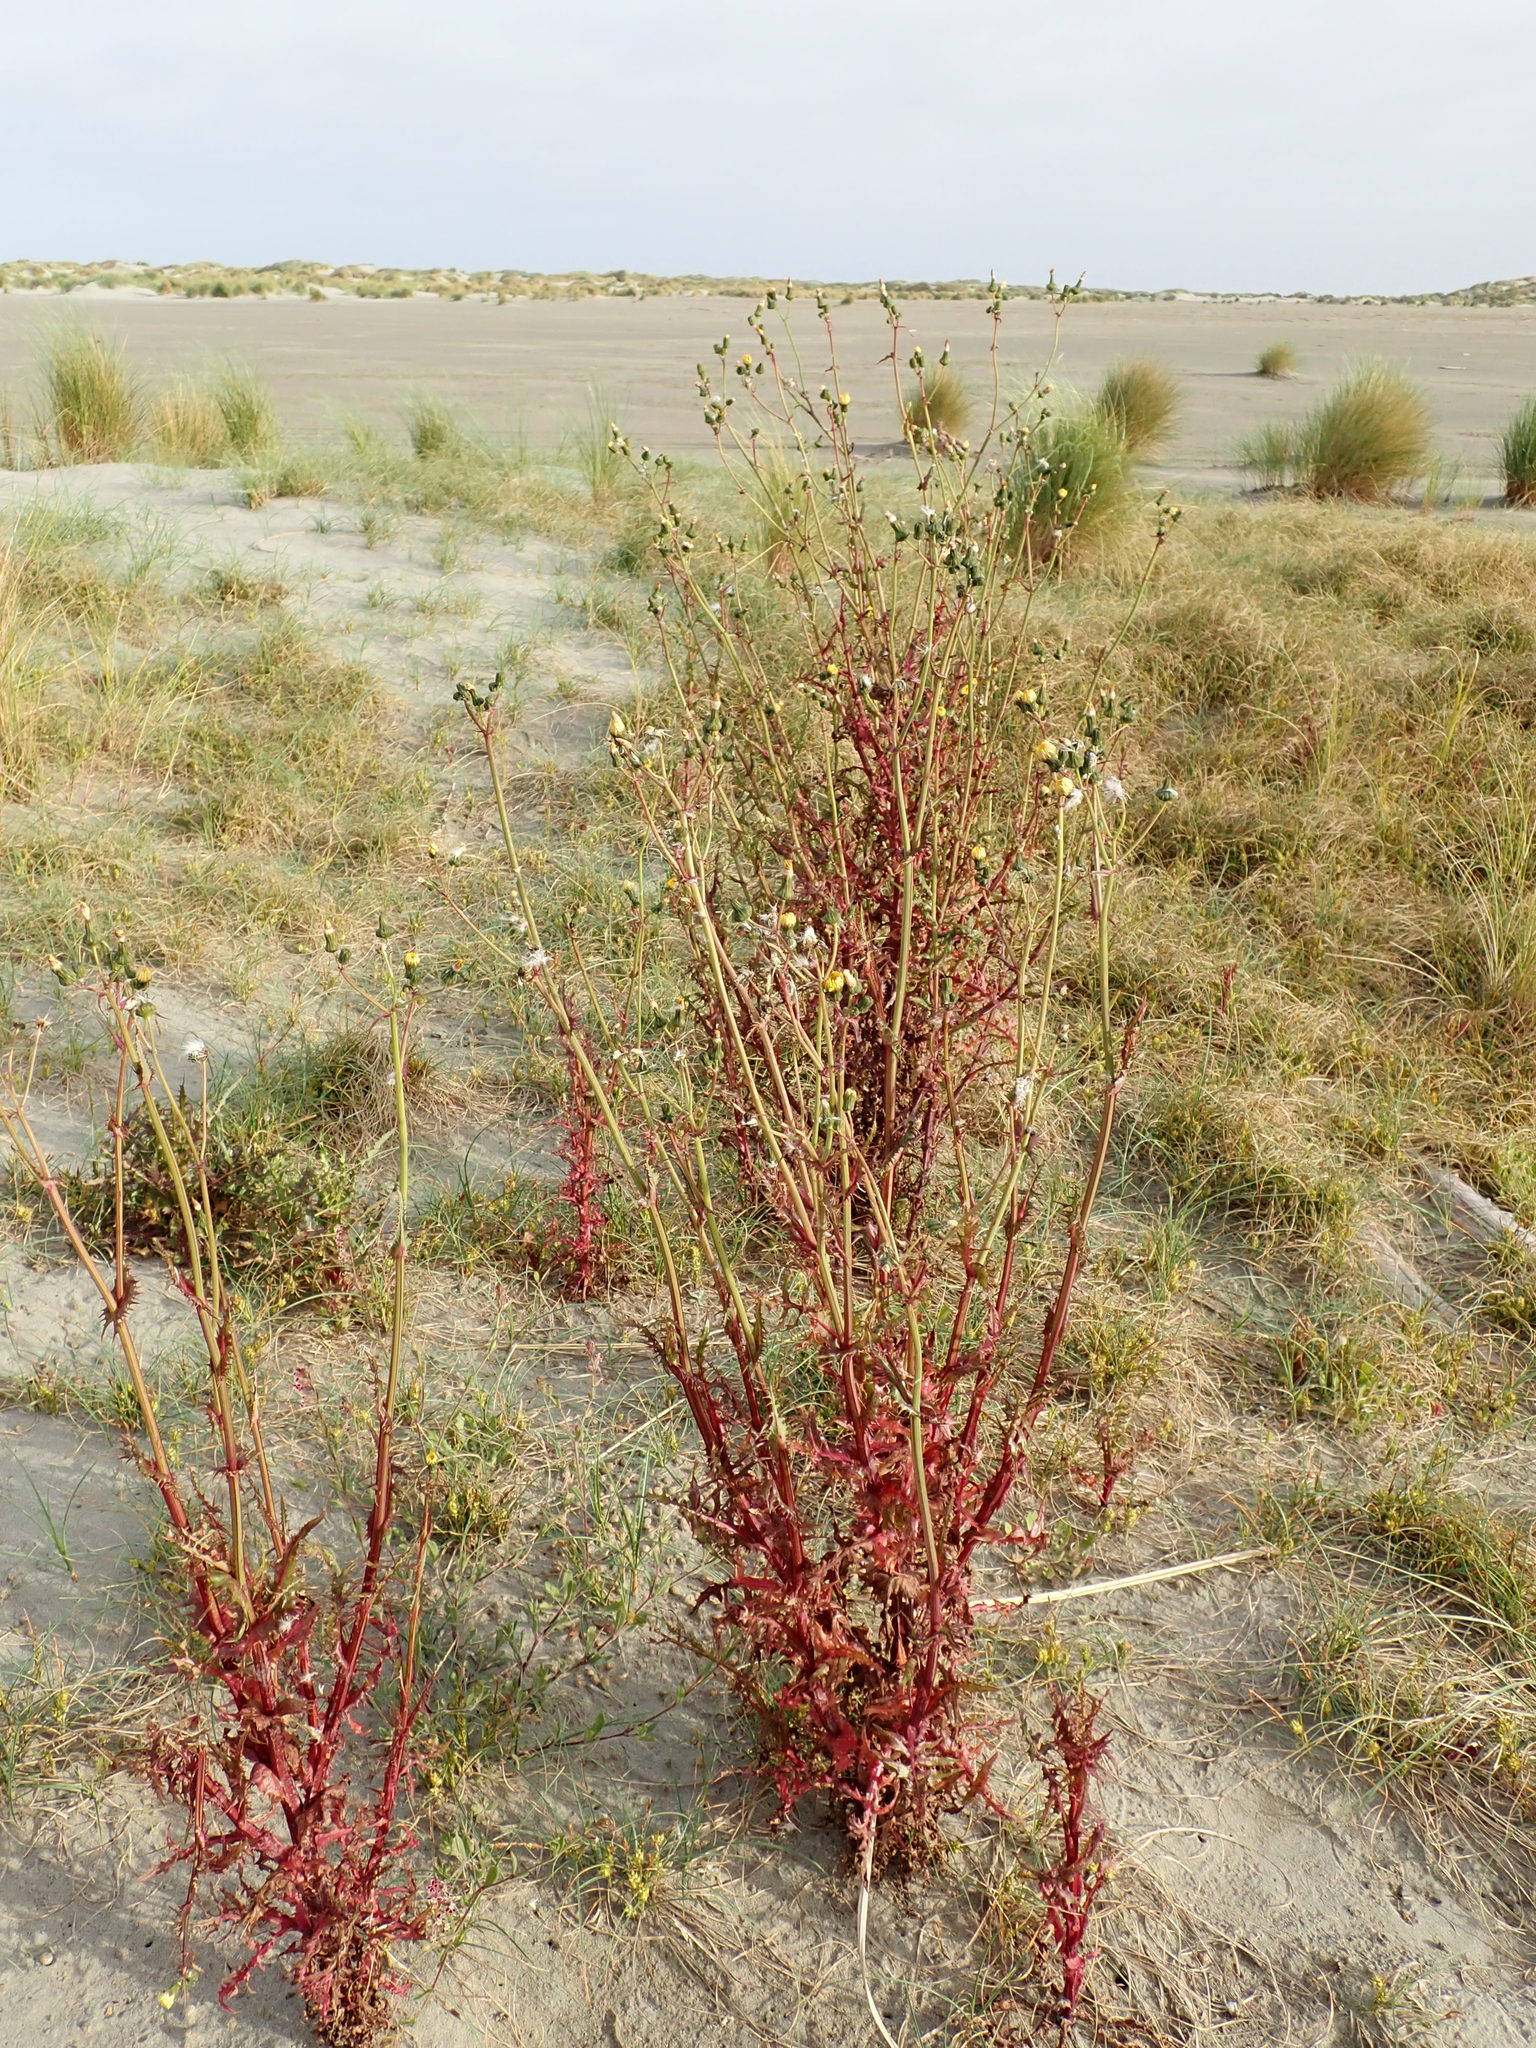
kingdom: Plantae
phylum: Tracheophyta
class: Magnoliopsida
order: Asterales
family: Asteraceae
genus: Sonchus
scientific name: Sonchus asper
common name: Prickly sow-thistle
